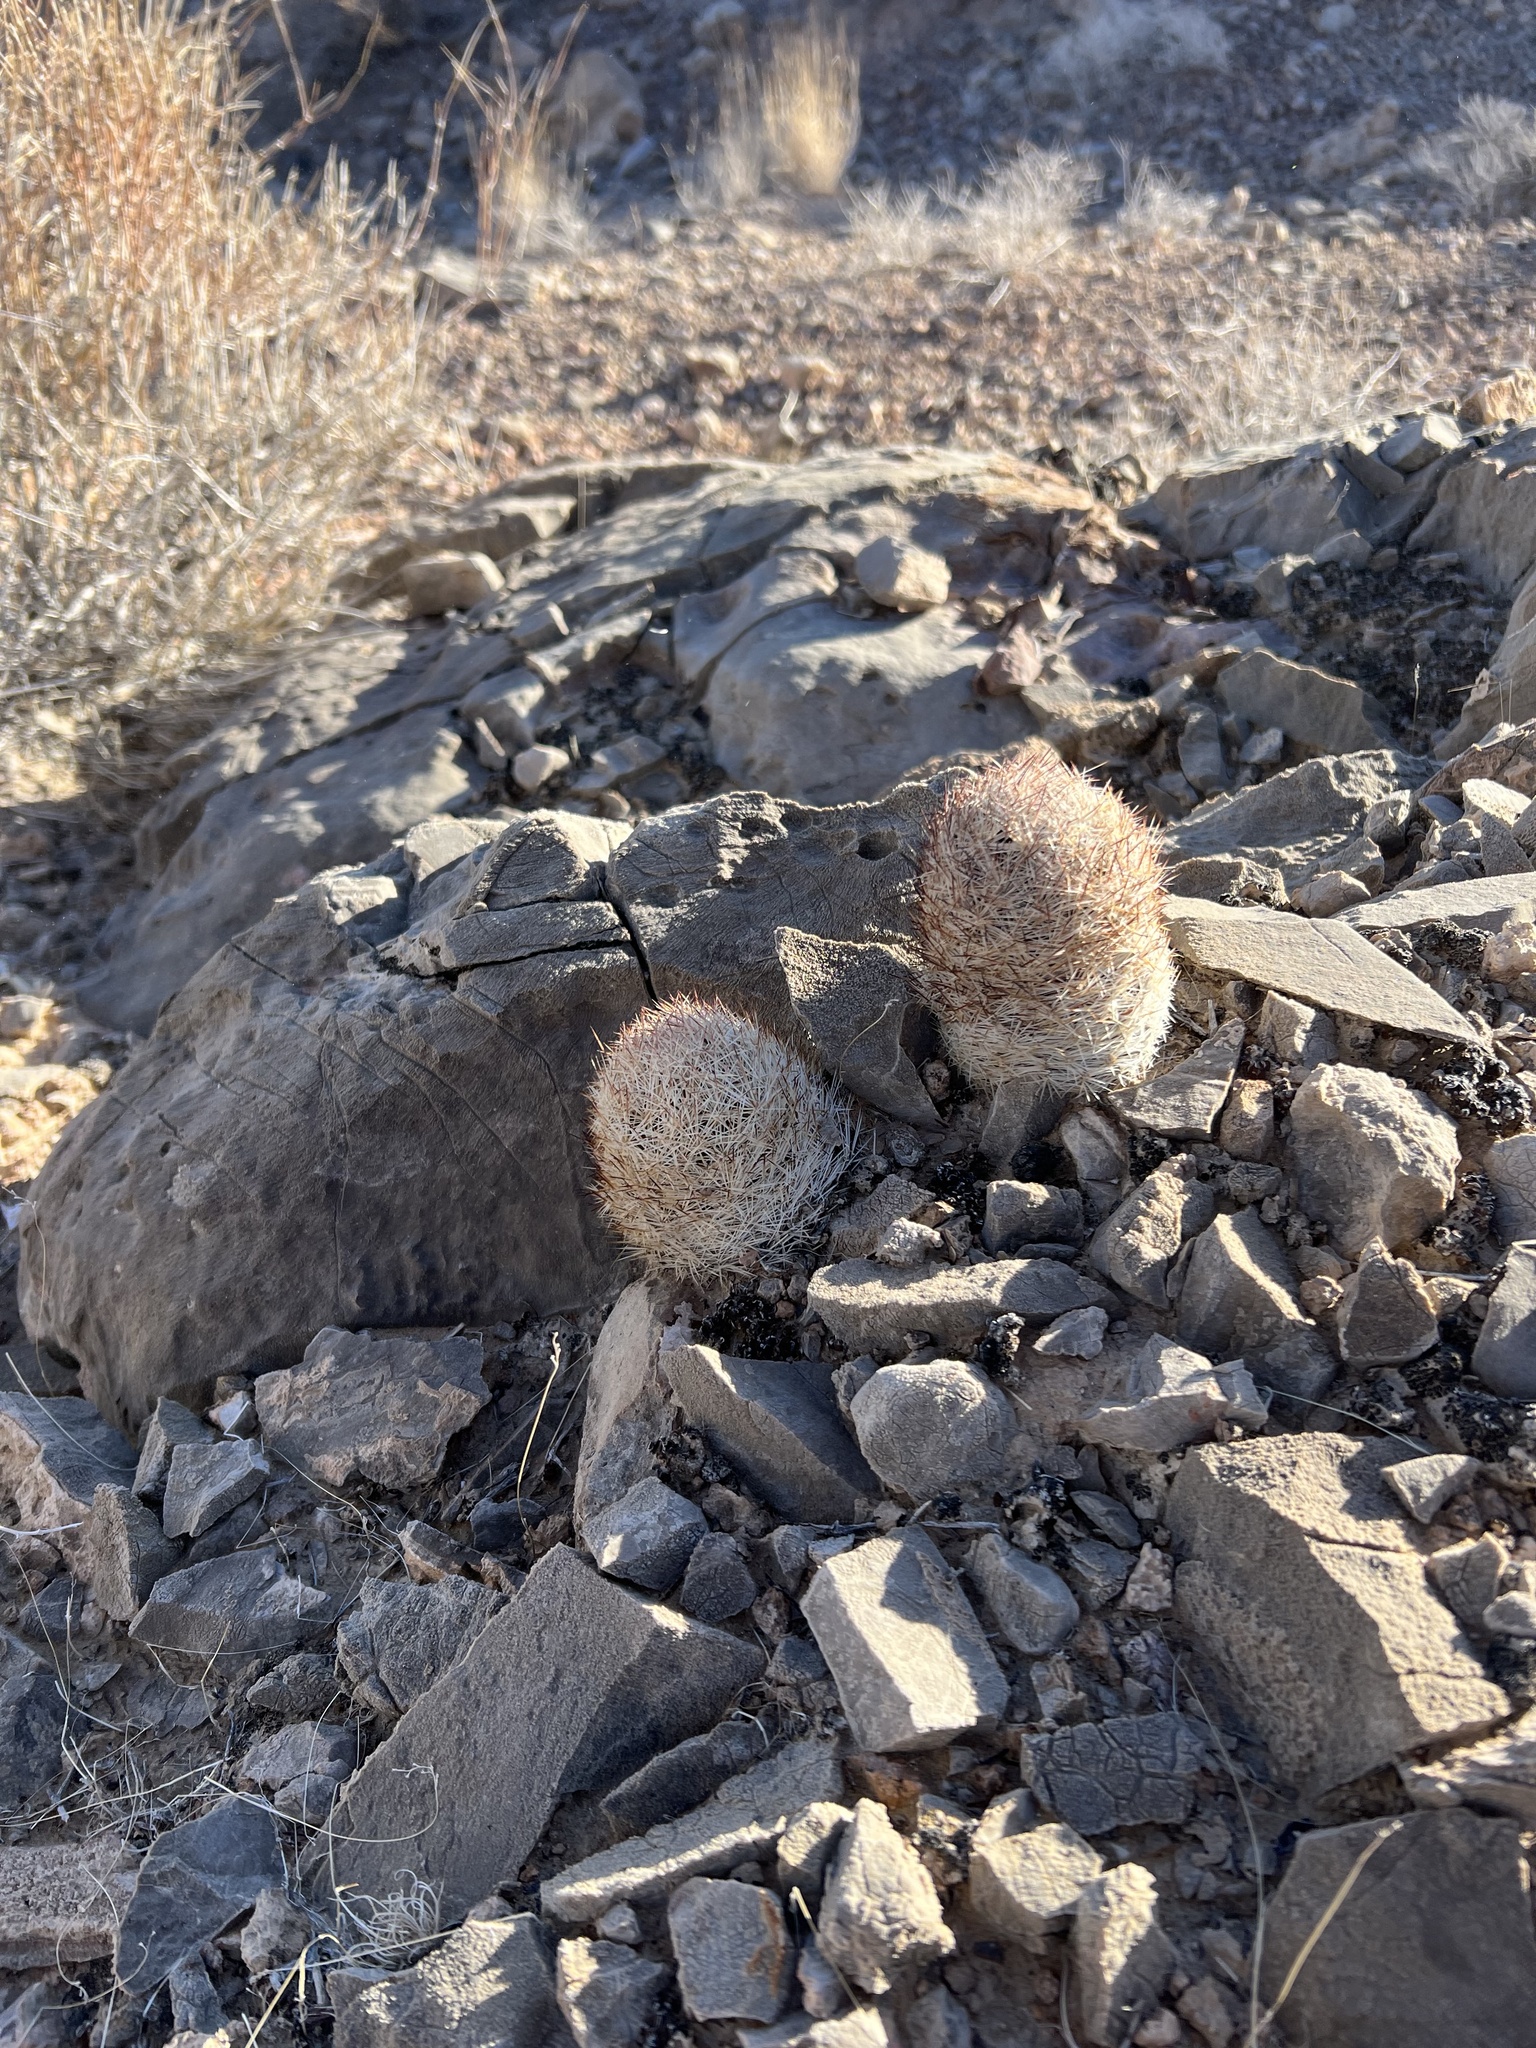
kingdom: Plantae
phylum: Tracheophyta
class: Magnoliopsida
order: Caryophyllales
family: Cactaceae
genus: Pelecyphora
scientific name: Pelecyphora dasyacantha
